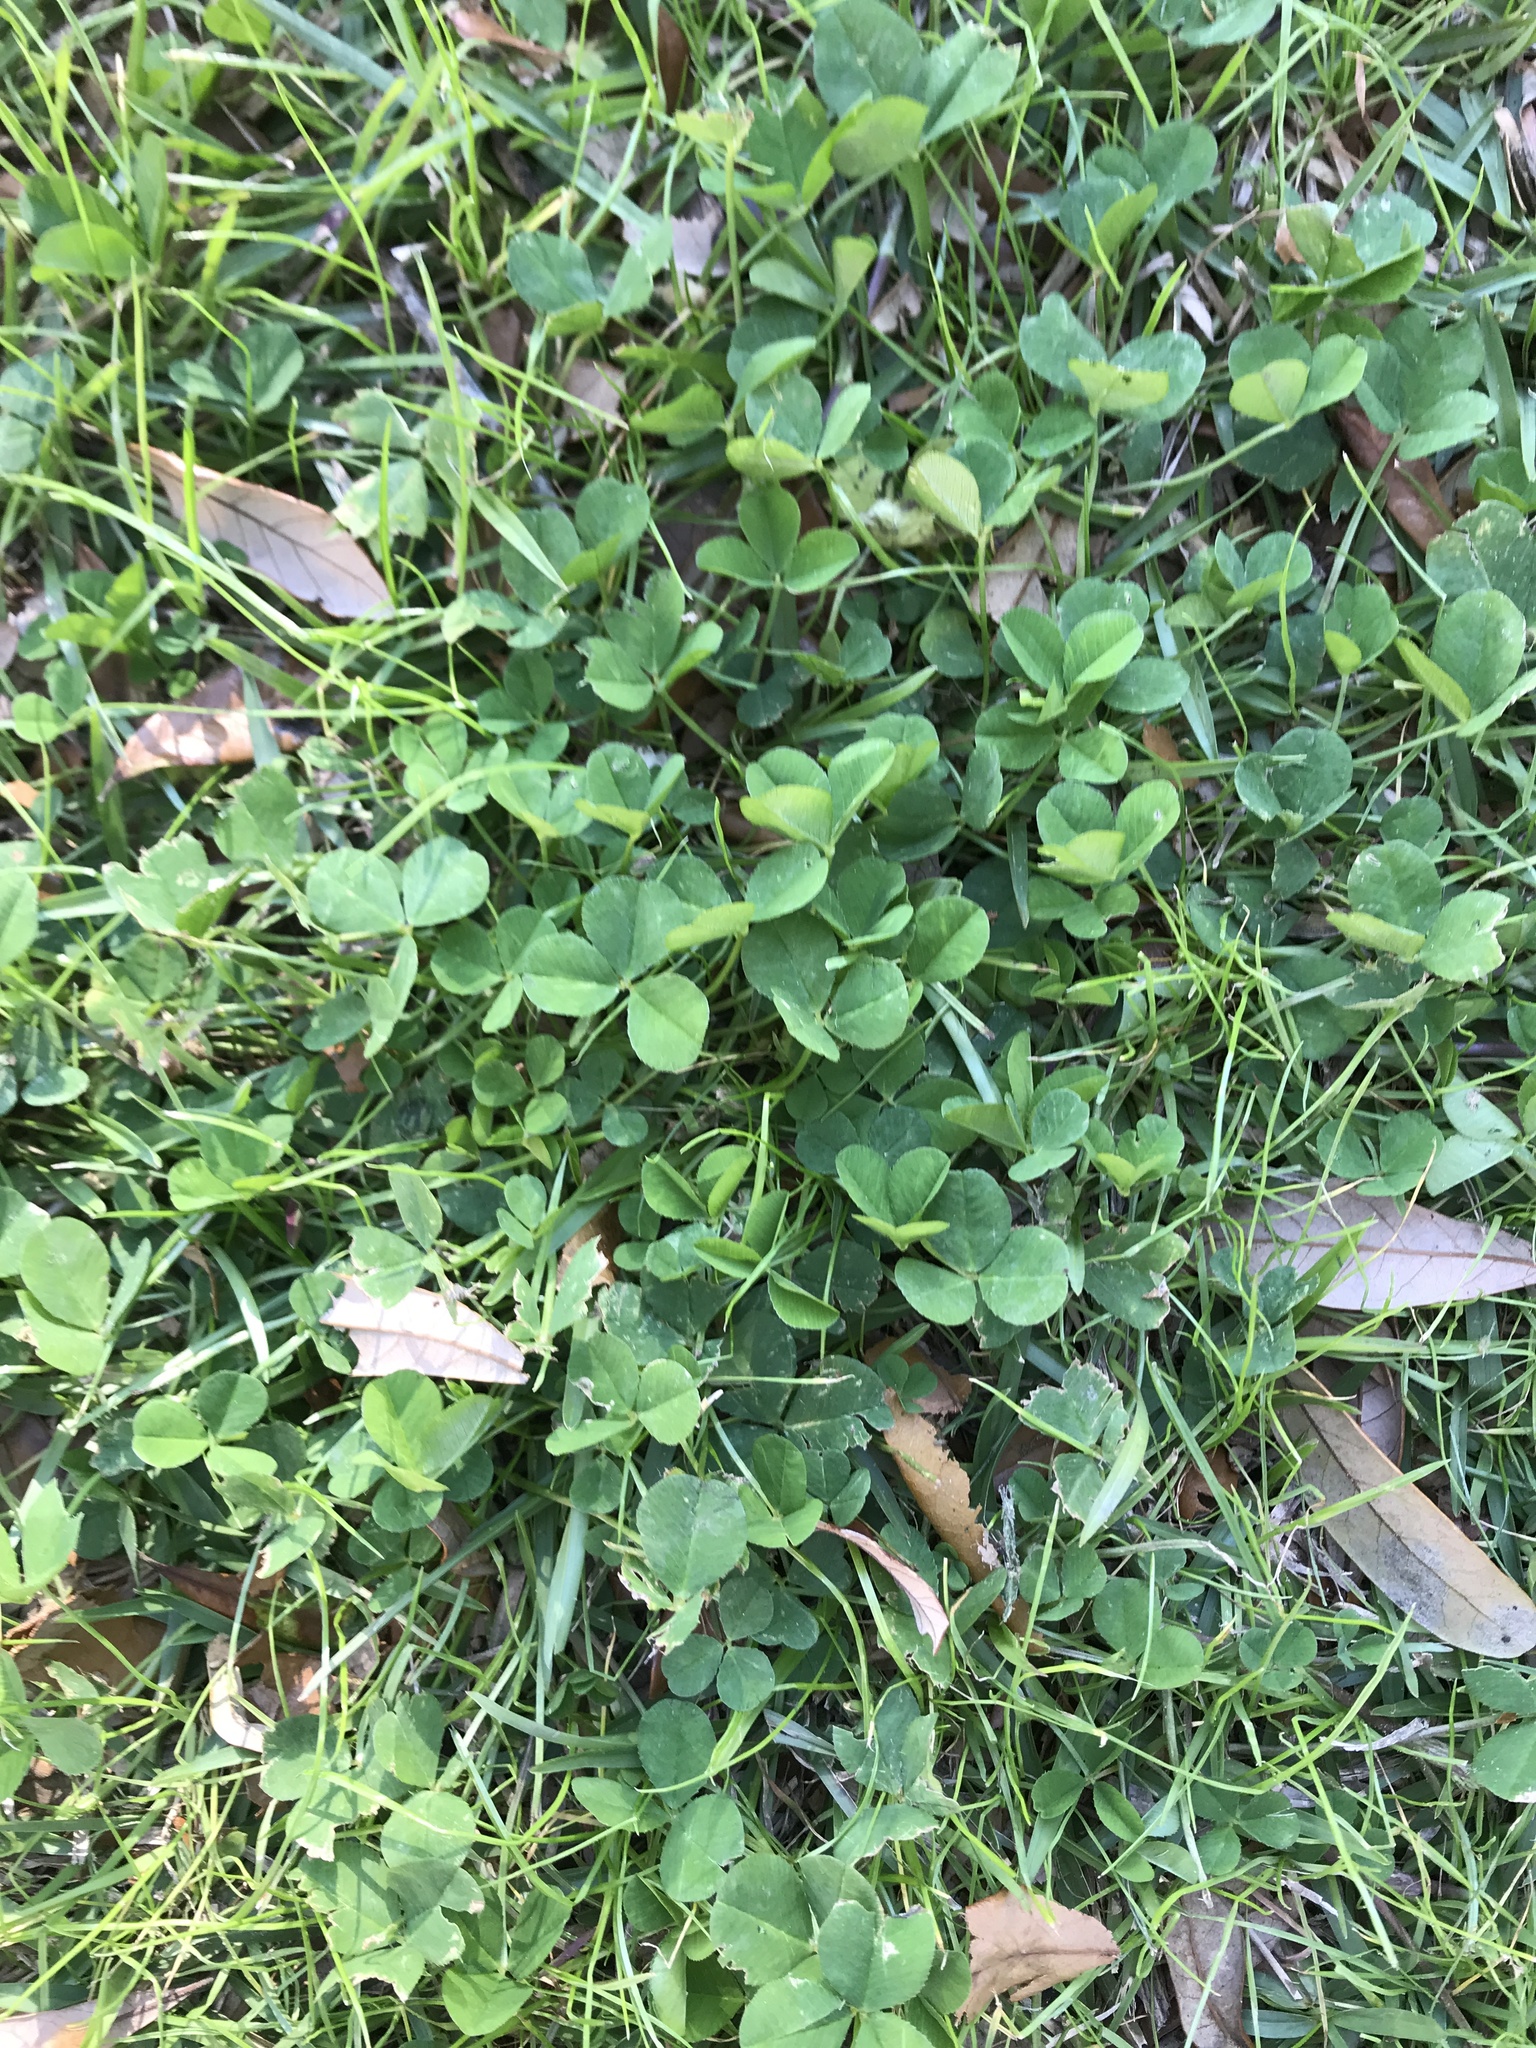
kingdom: Plantae
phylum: Tracheophyta
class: Magnoliopsida
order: Fabales
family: Fabaceae
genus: Trifolium
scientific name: Trifolium repens
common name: White clover
